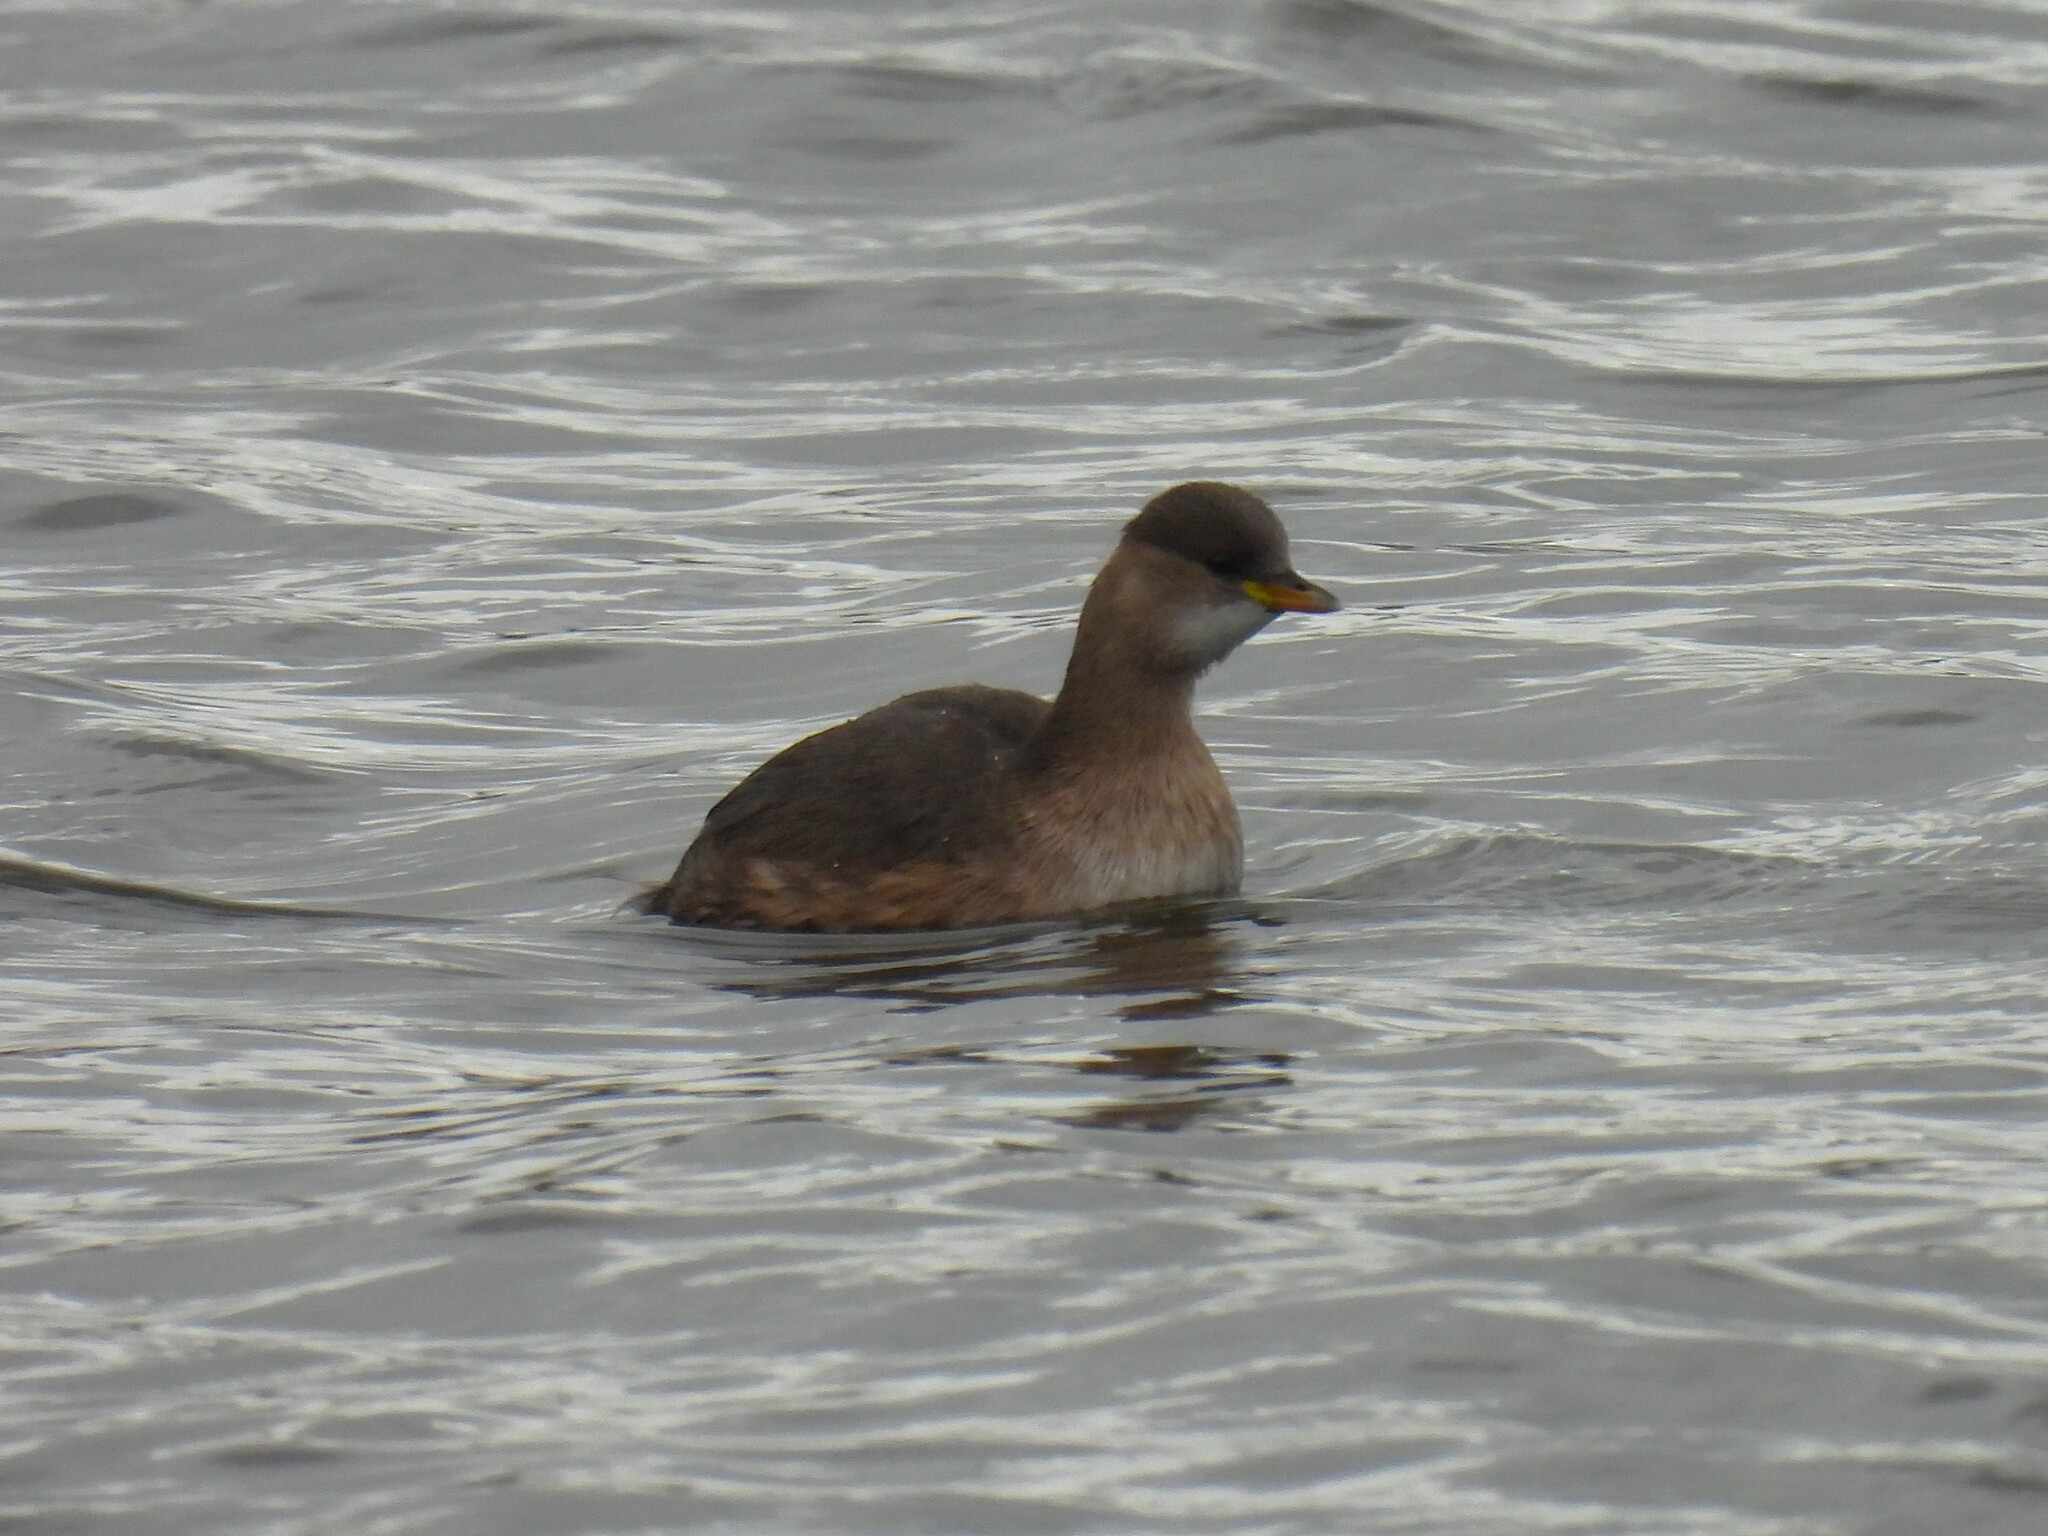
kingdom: Animalia
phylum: Chordata
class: Aves
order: Podicipediformes
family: Podicipedidae
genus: Tachybaptus
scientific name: Tachybaptus ruficollis
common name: Little grebe
